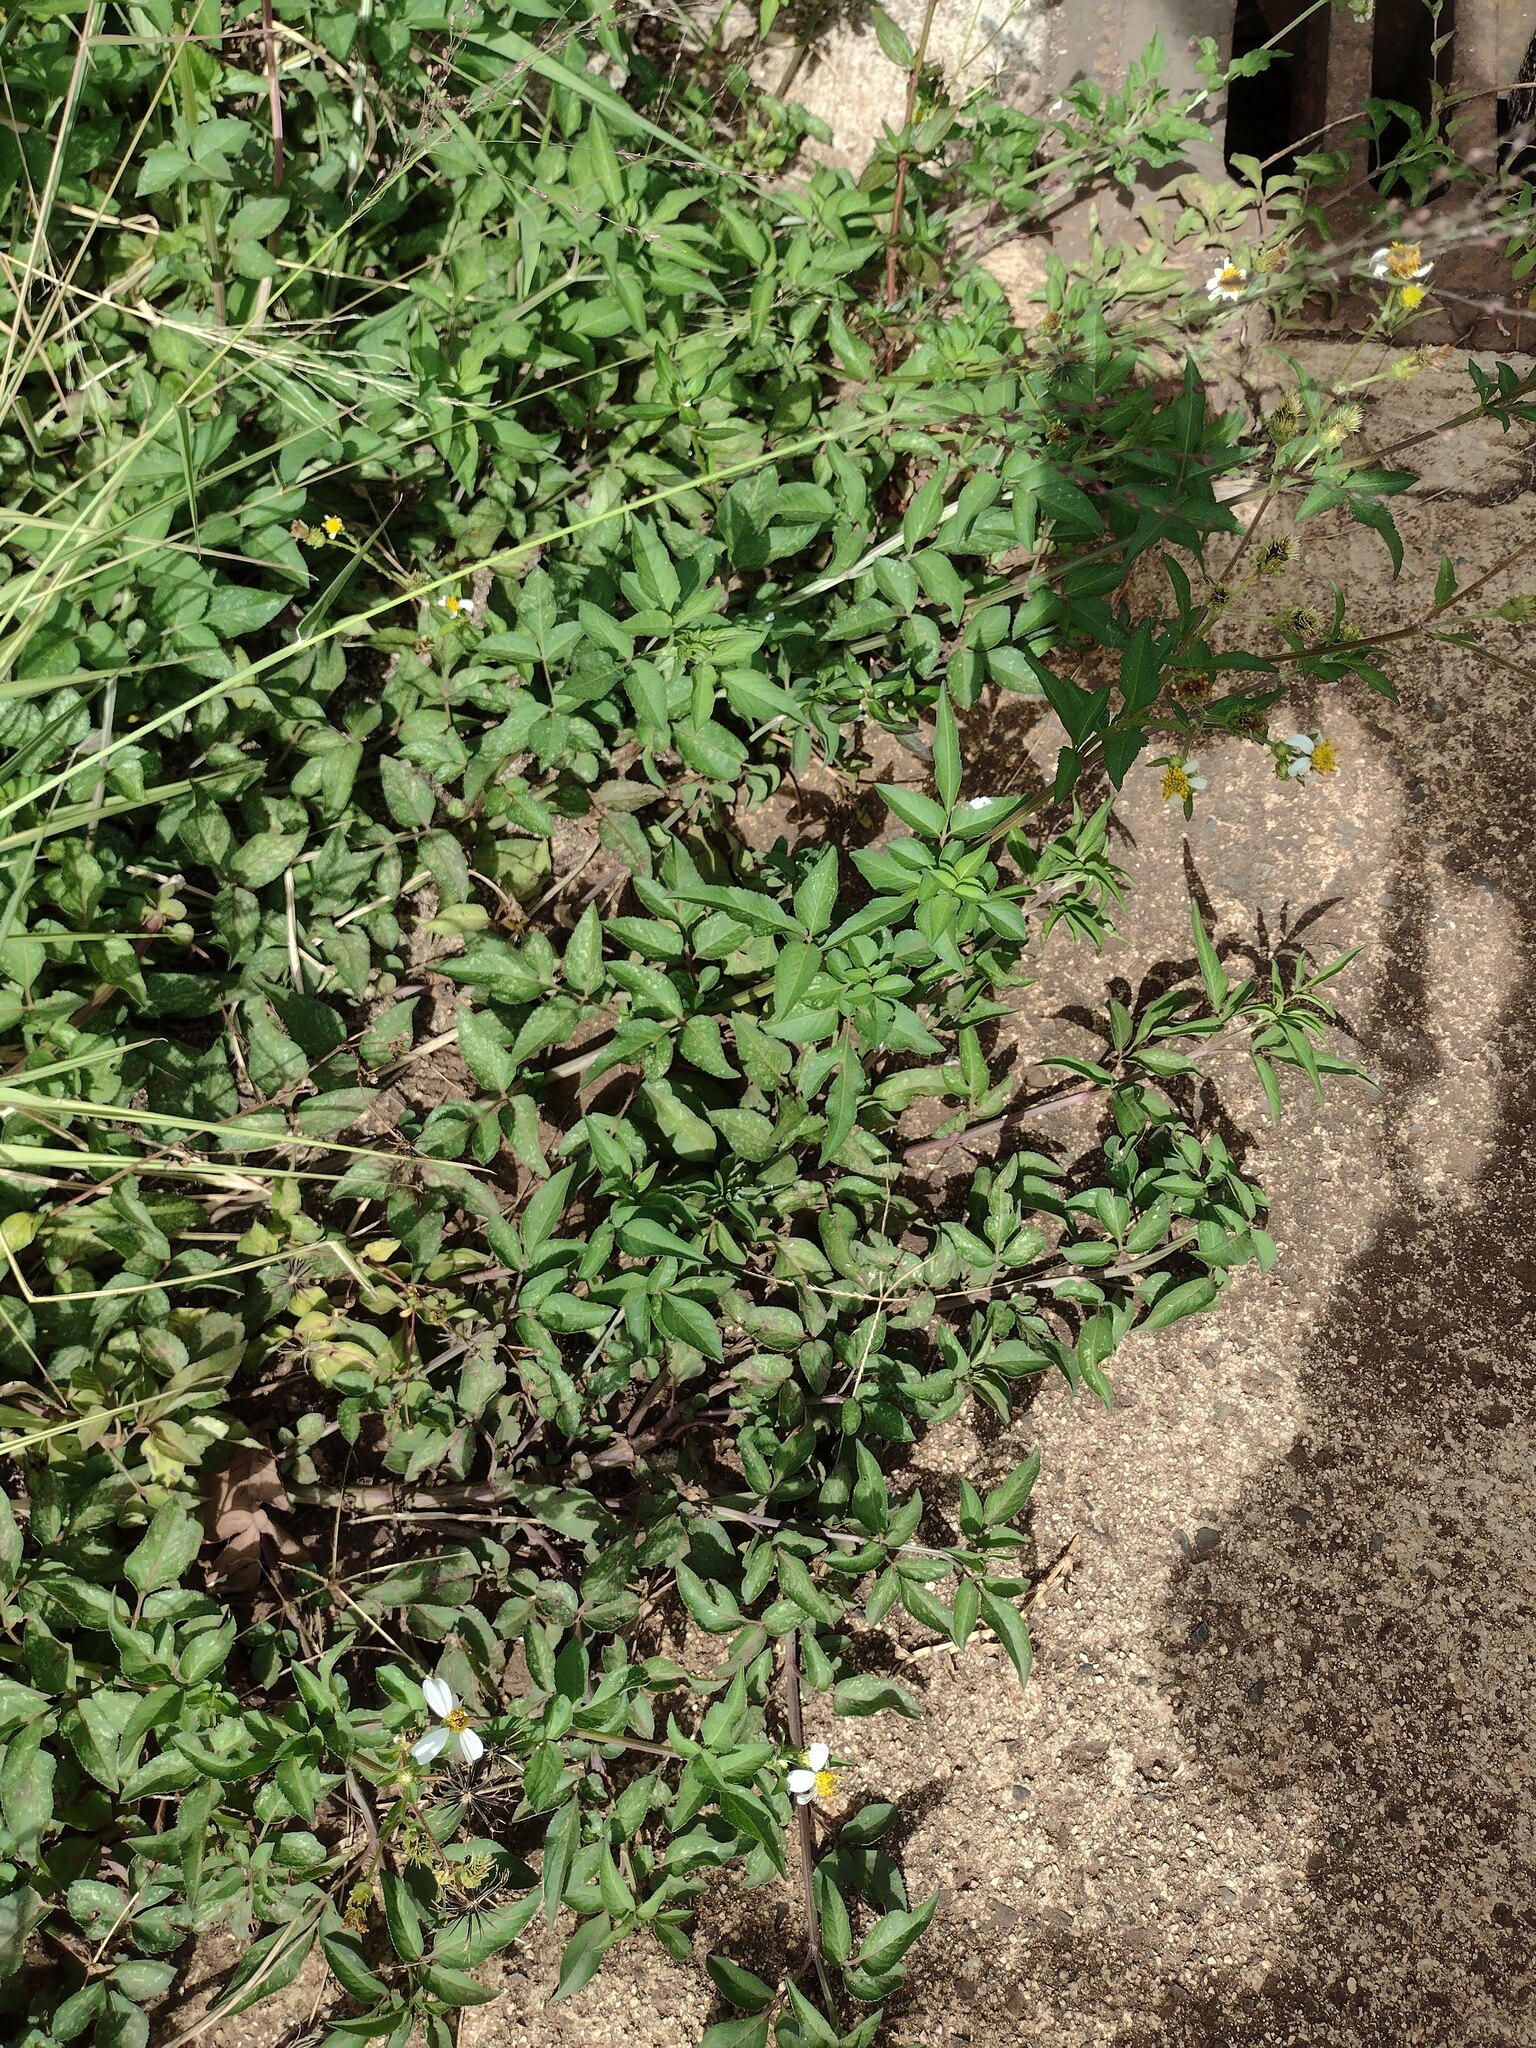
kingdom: Plantae
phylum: Tracheophyta
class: Magnoliopsida
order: Asterales
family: Asteraceae
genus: Bidens
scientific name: Bidens alba
